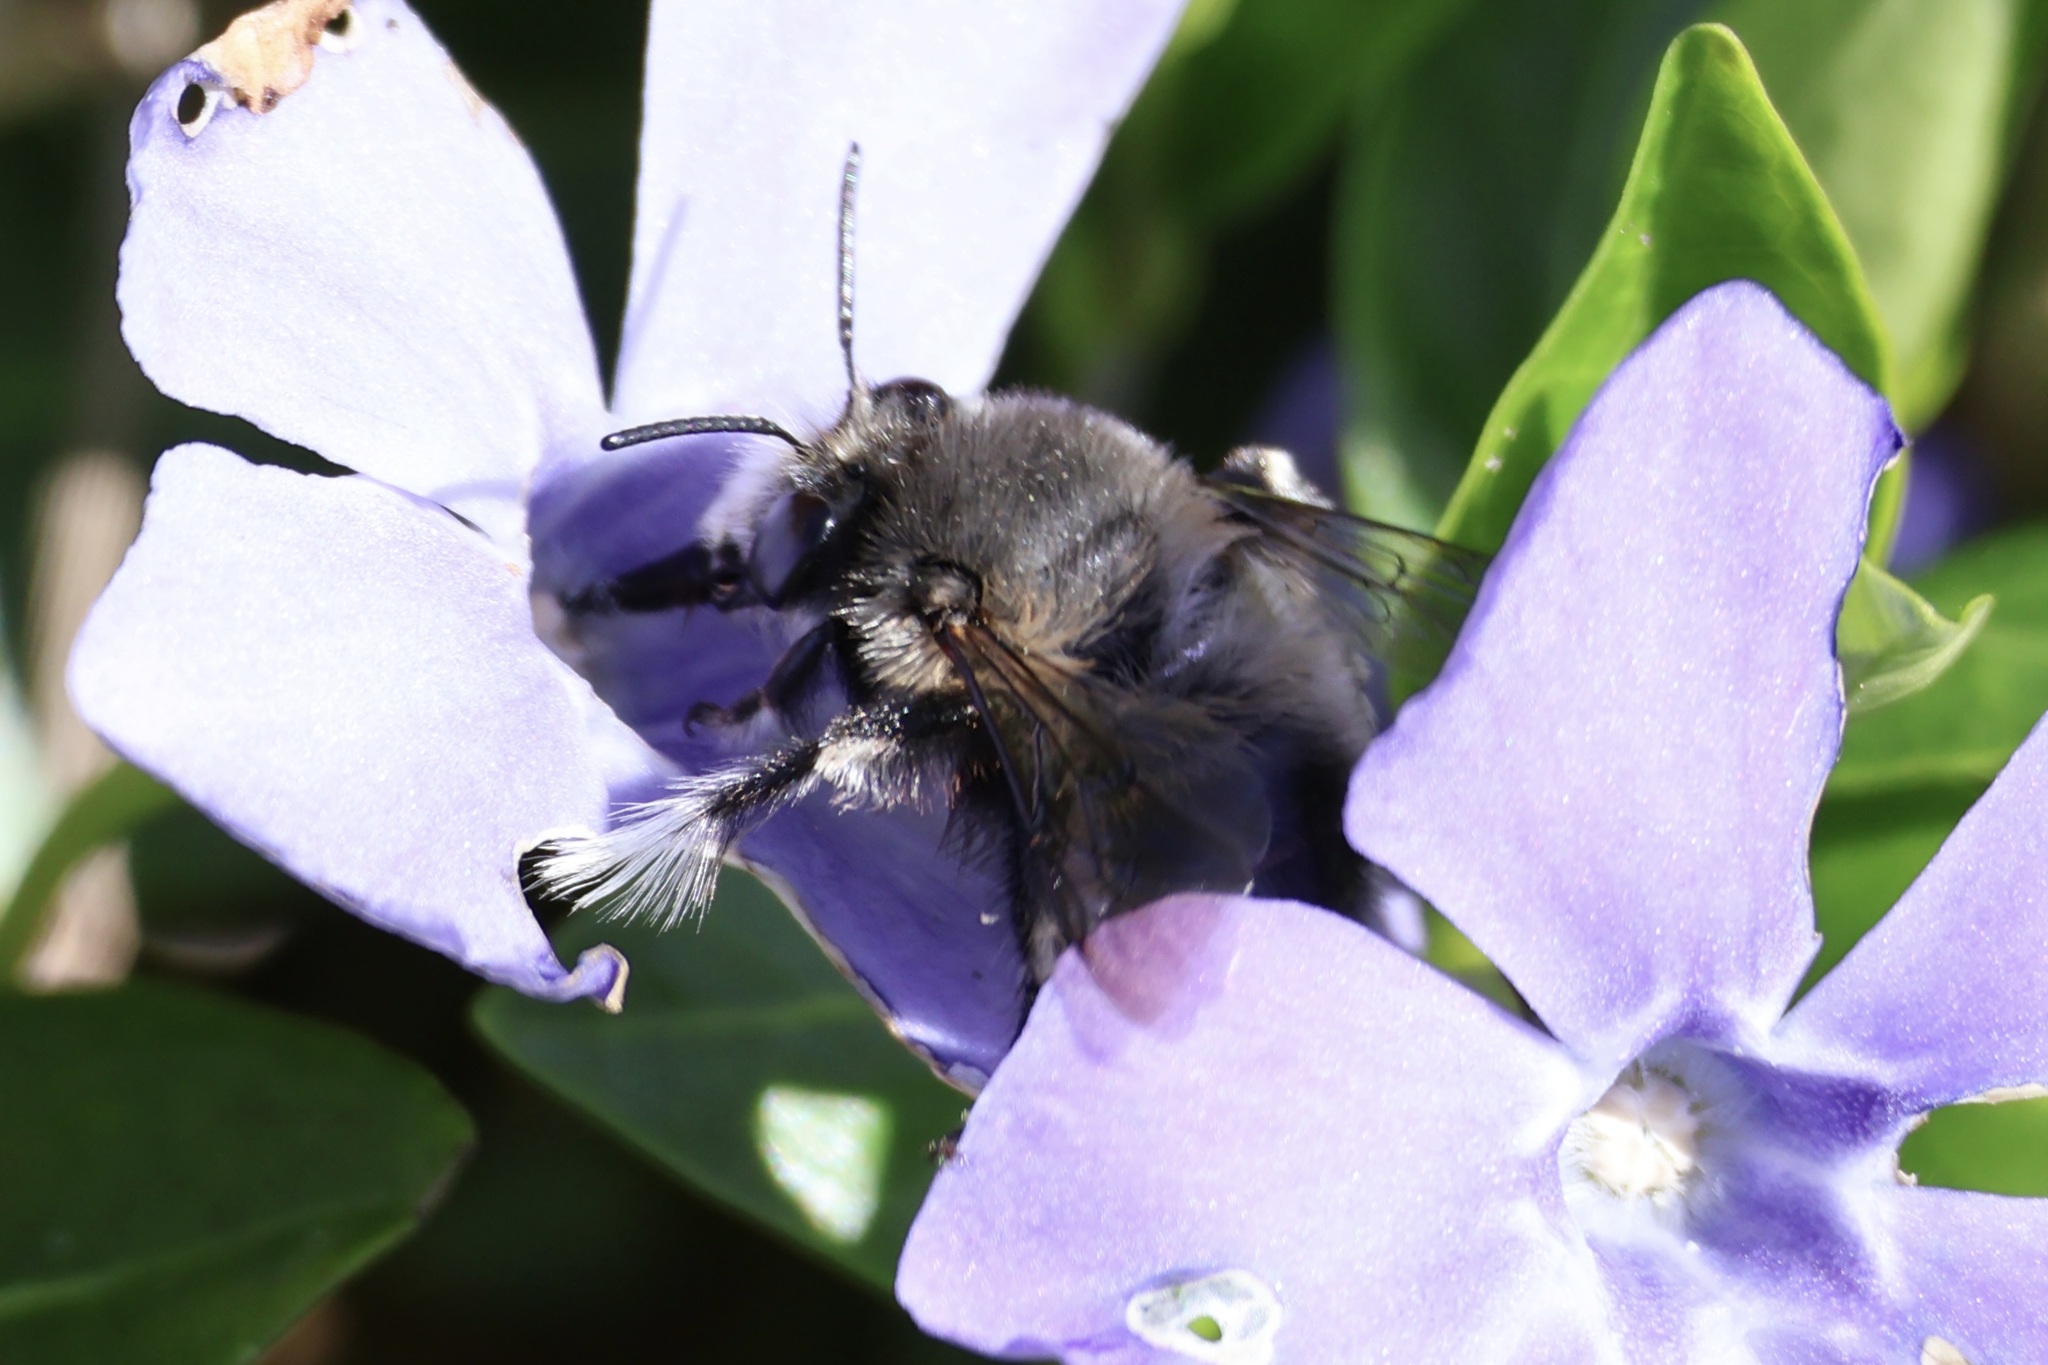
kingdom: Animalia
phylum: Arthropoda
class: Insecta
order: Hymenoptera
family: Apidae
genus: Anthophora
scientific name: Anthophora pacifica
